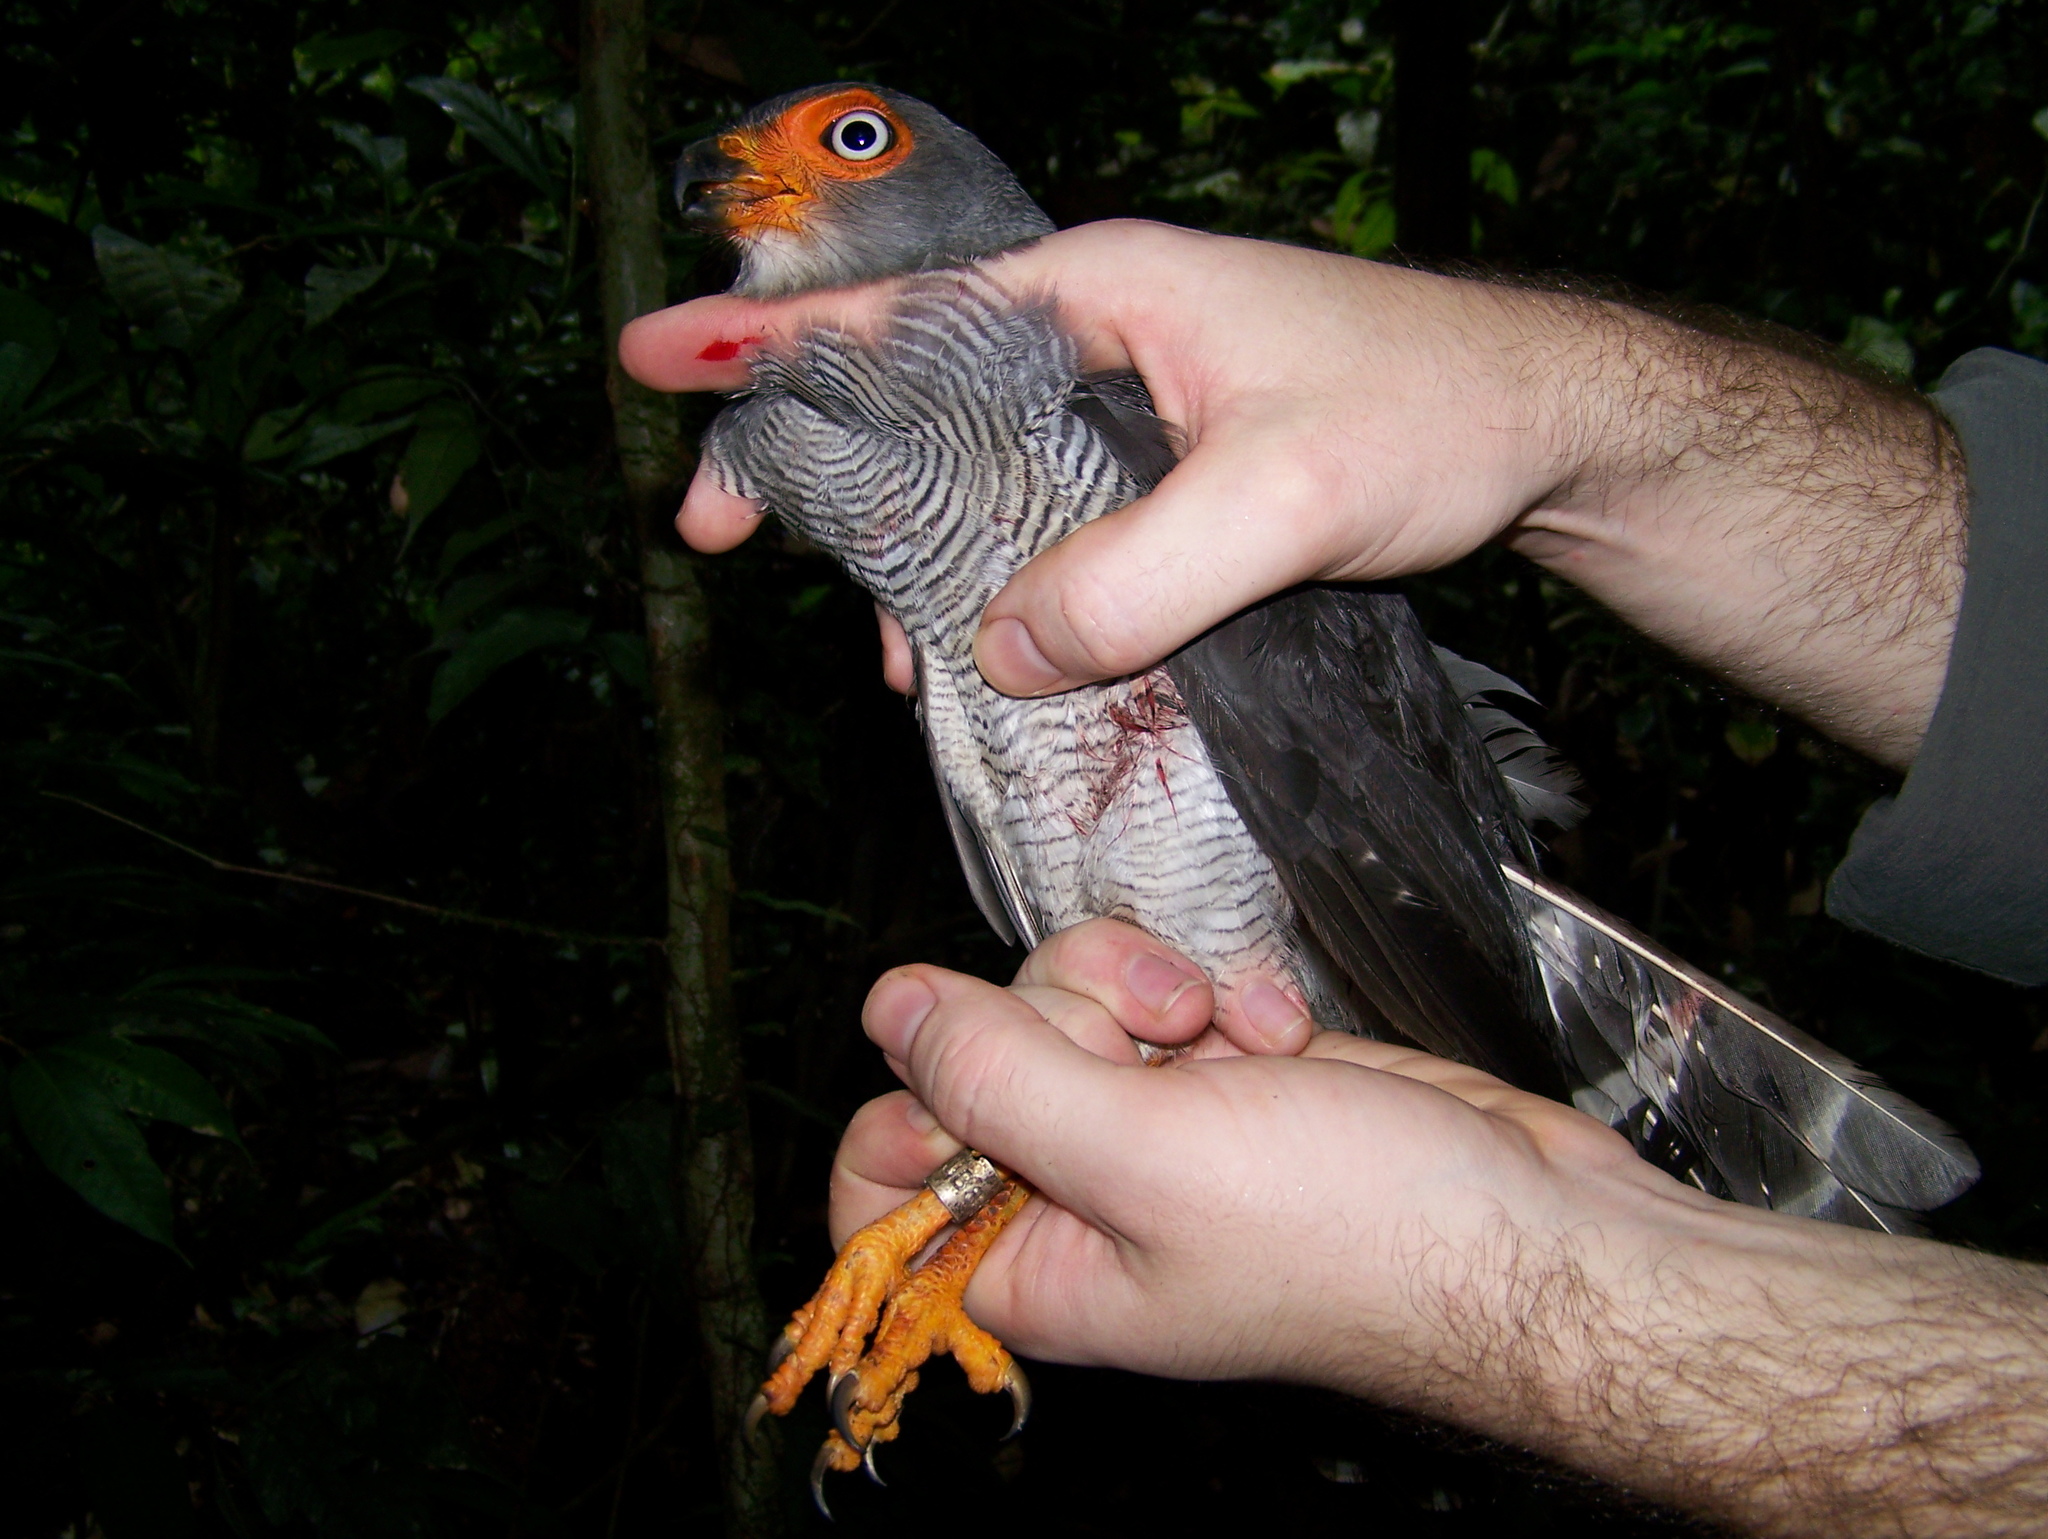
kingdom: Animalia
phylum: Chordata
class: Aves
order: Falconiformes
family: Falconidae
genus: Micrastur
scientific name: Micrastur gilvicollis
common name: Lined forest falcon
